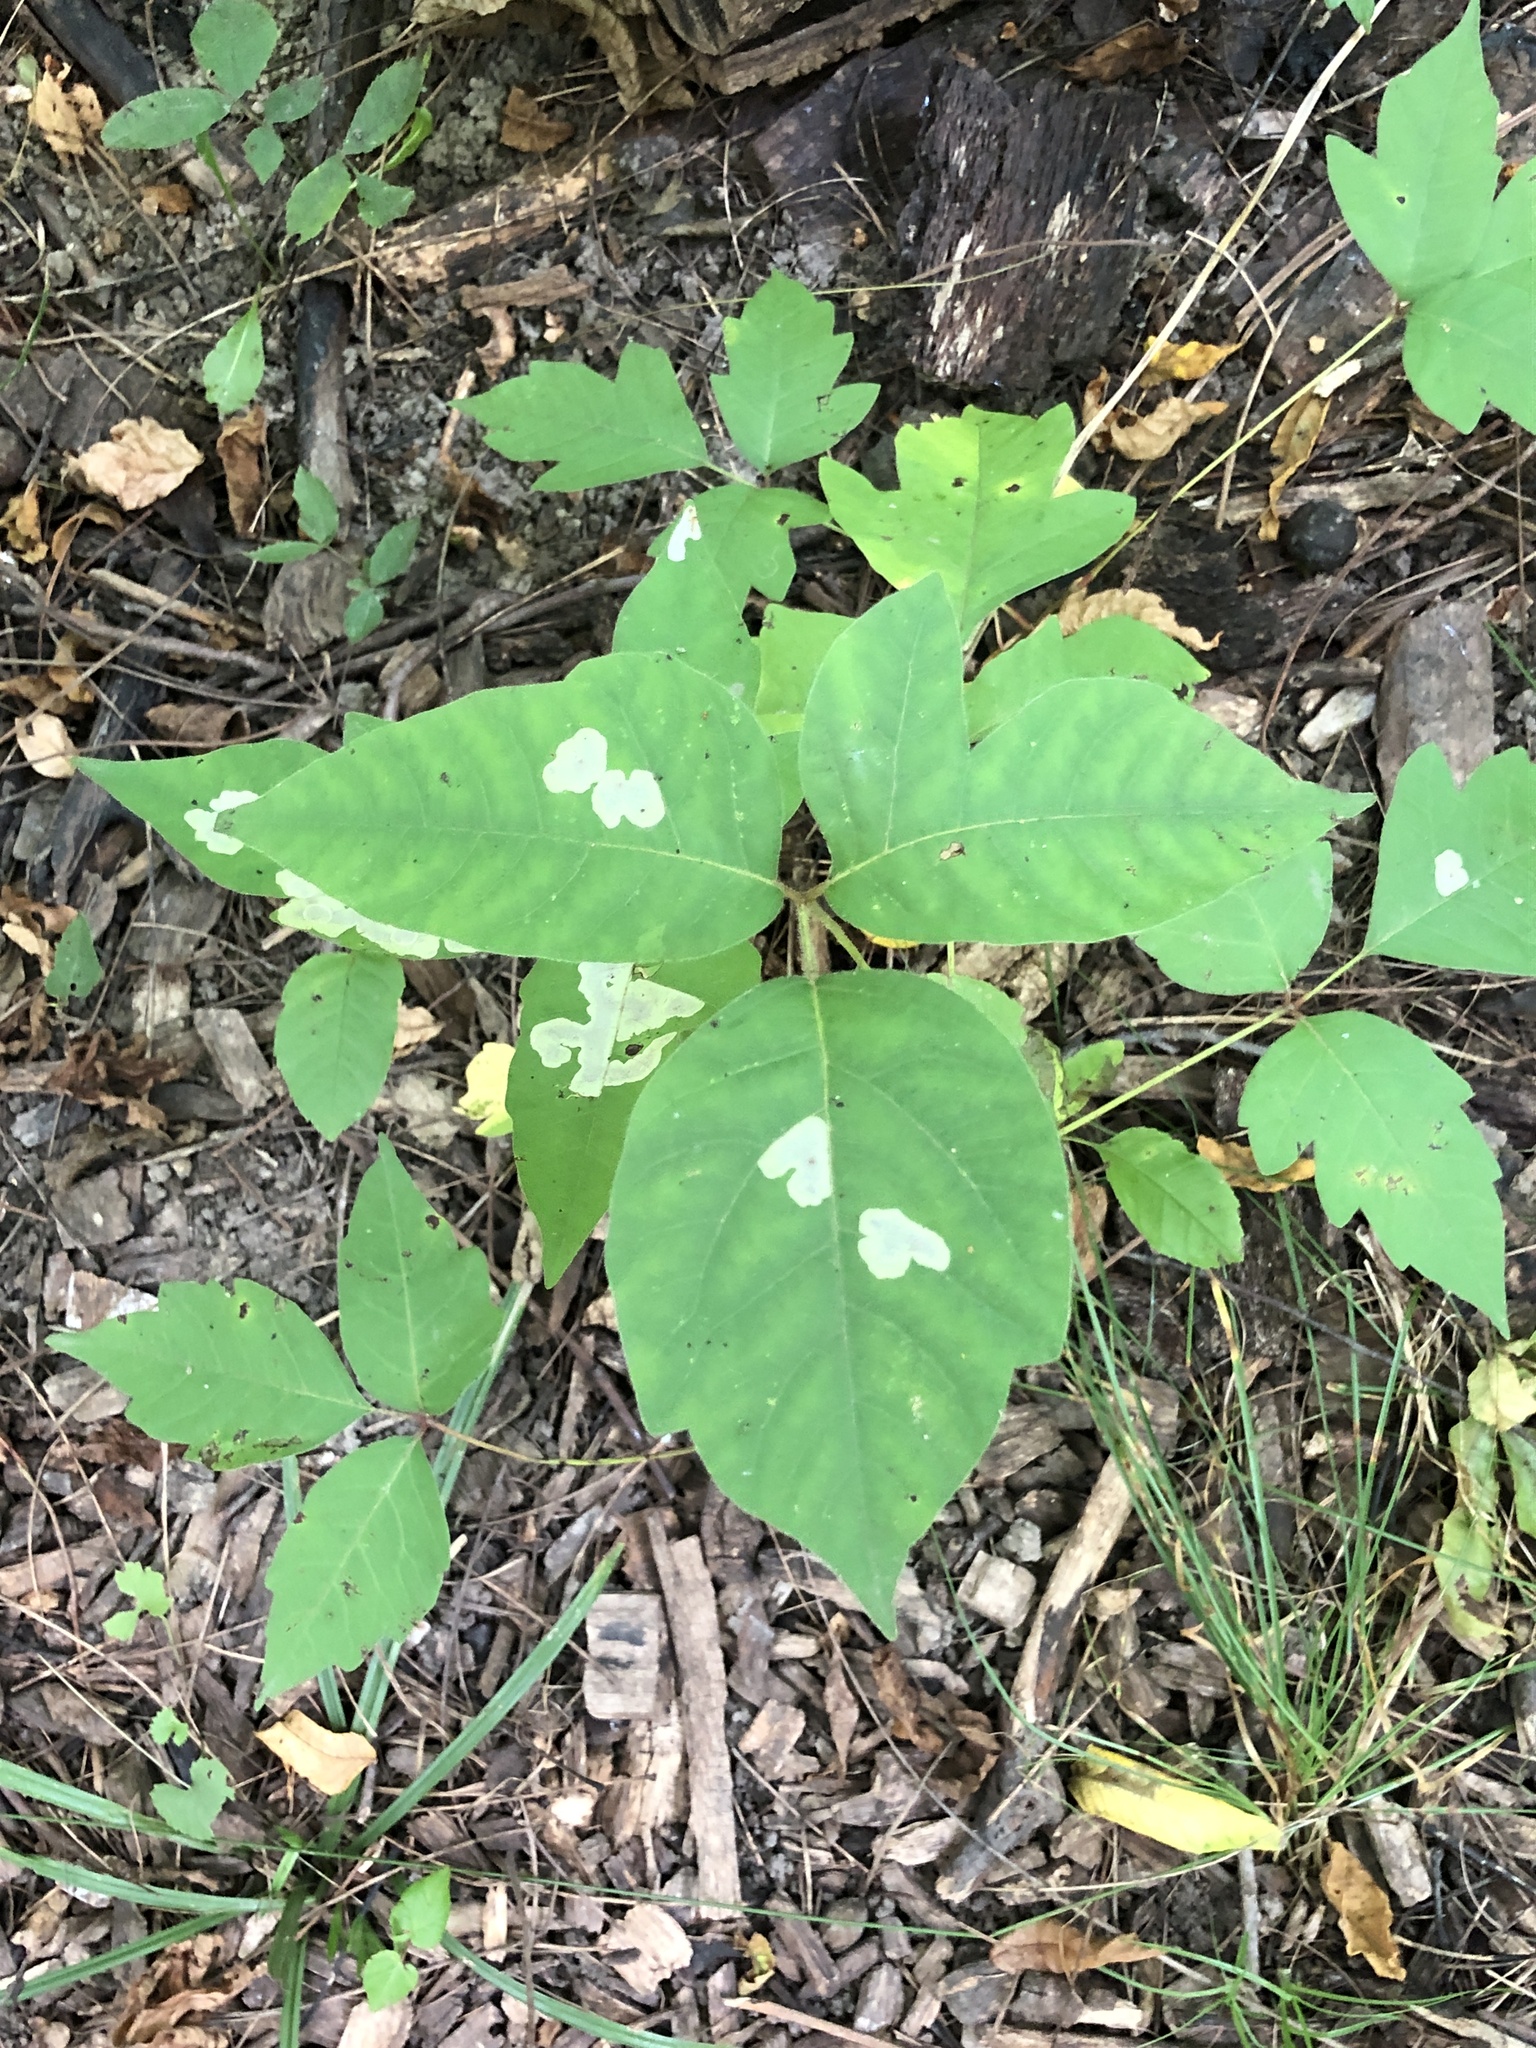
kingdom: Plantae
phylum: Tracheophyta
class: Magnoliopsida
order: Sapindales
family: Anacardiaceae
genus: Toxicodendron
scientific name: Toxicodendron radicans
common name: Poison ivy
